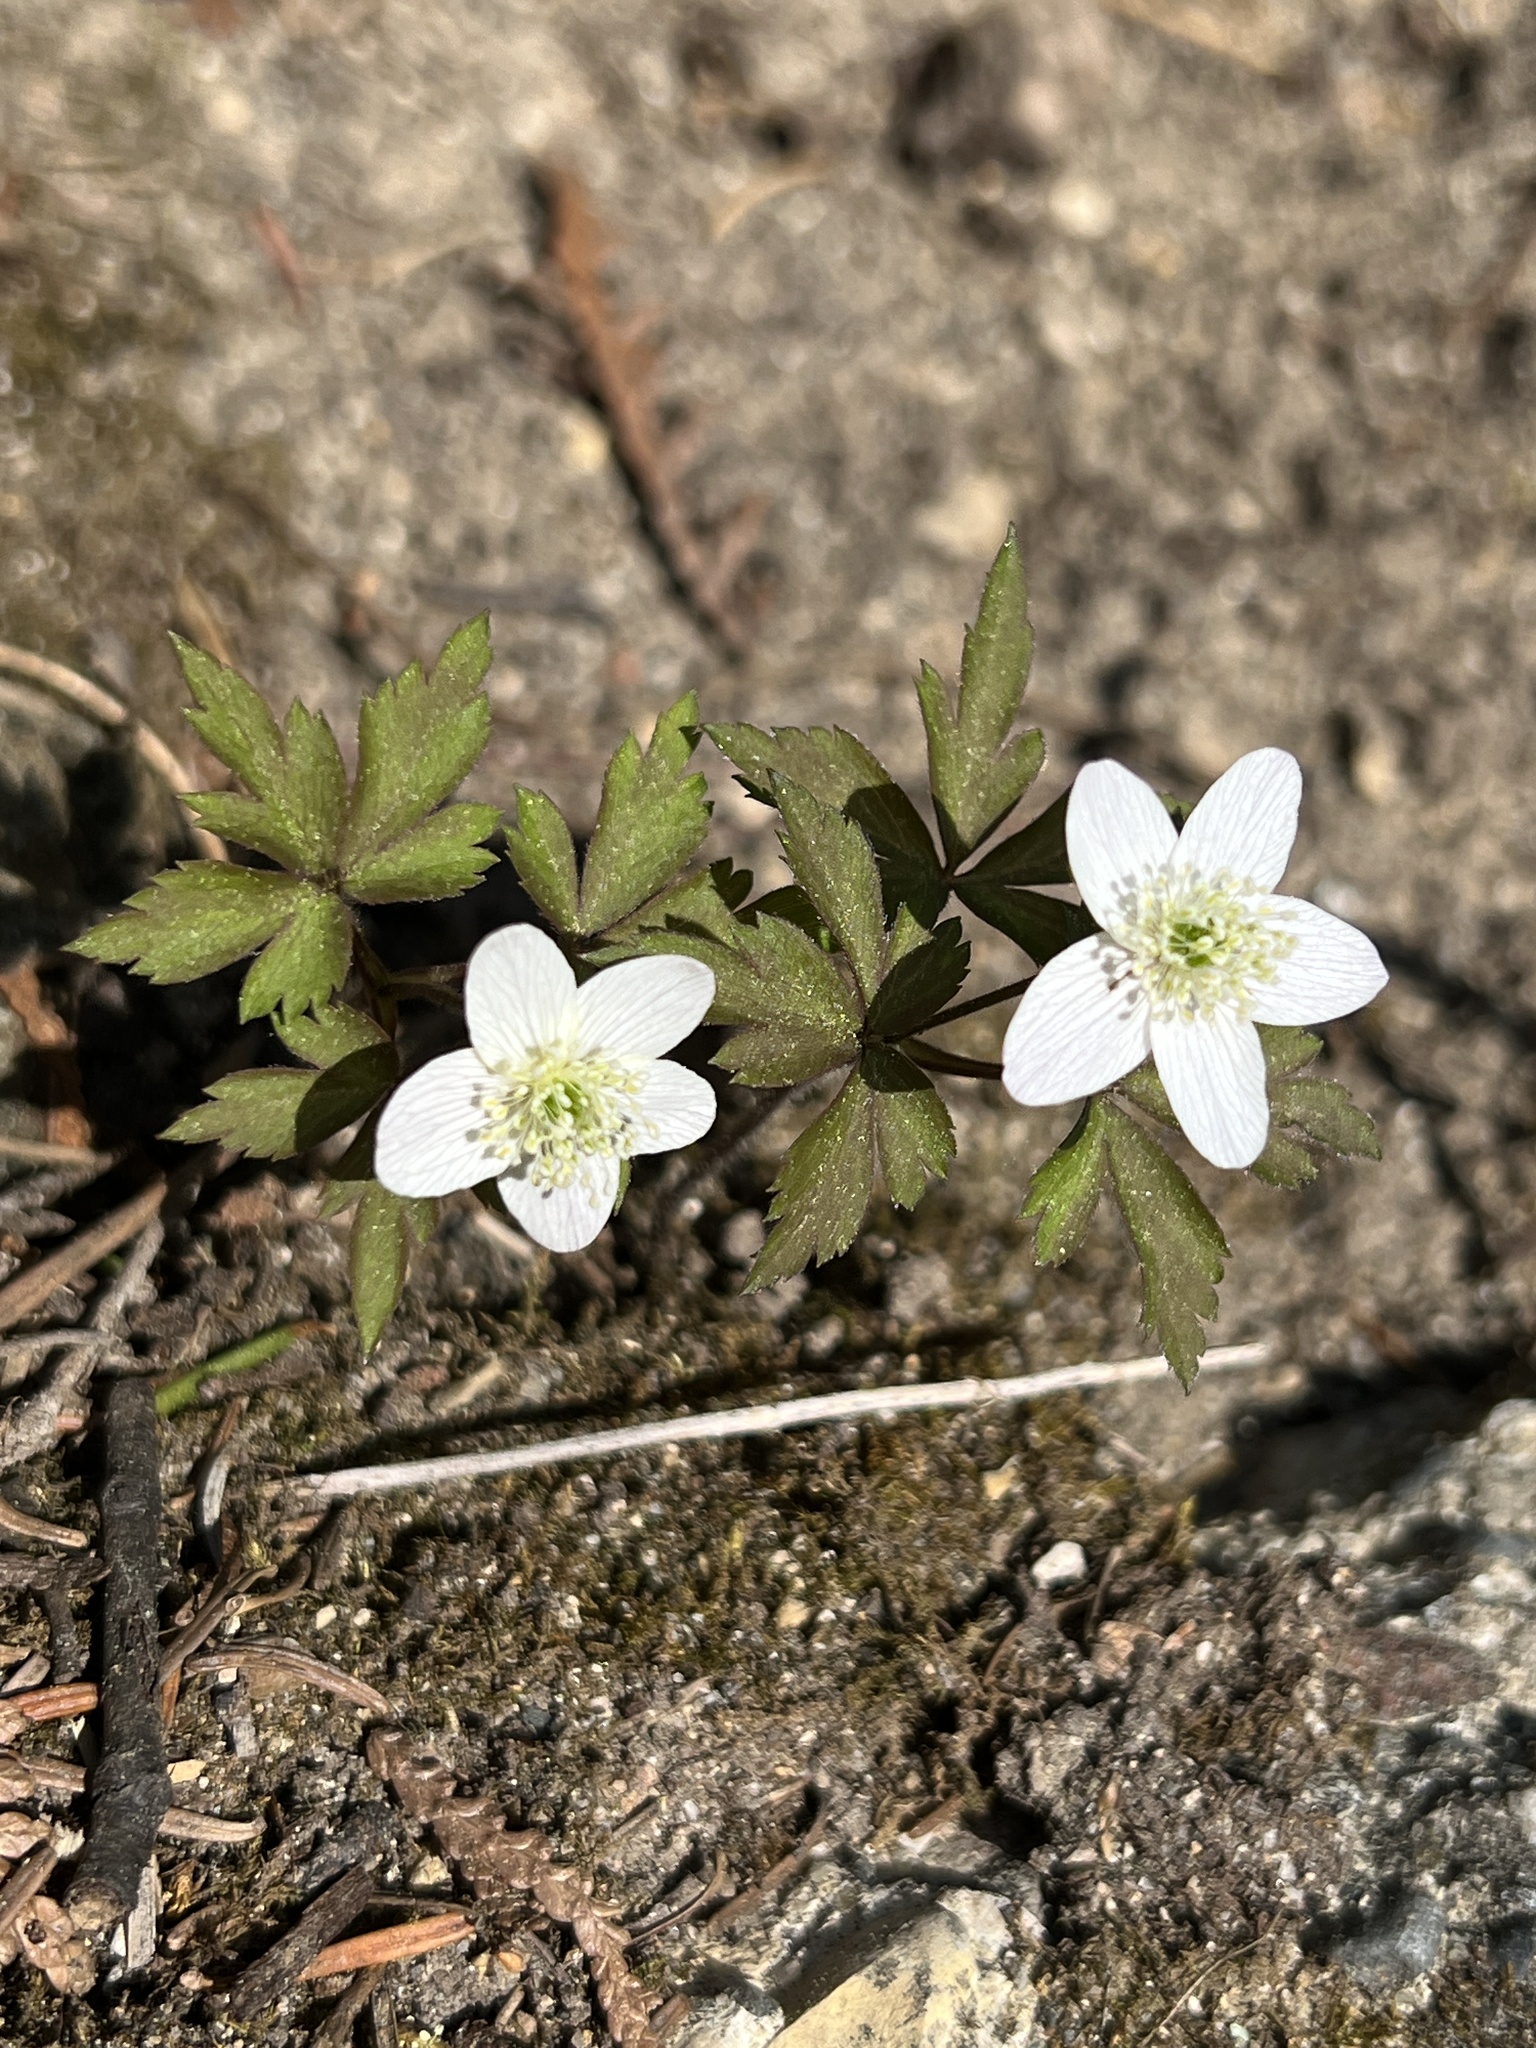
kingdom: Plantae
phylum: Tracheophyta
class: Magnoliopsida
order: Ranunculales
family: Ranunculaceae
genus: Anemone
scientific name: Anemone quinquefolia
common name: Wood anemone
